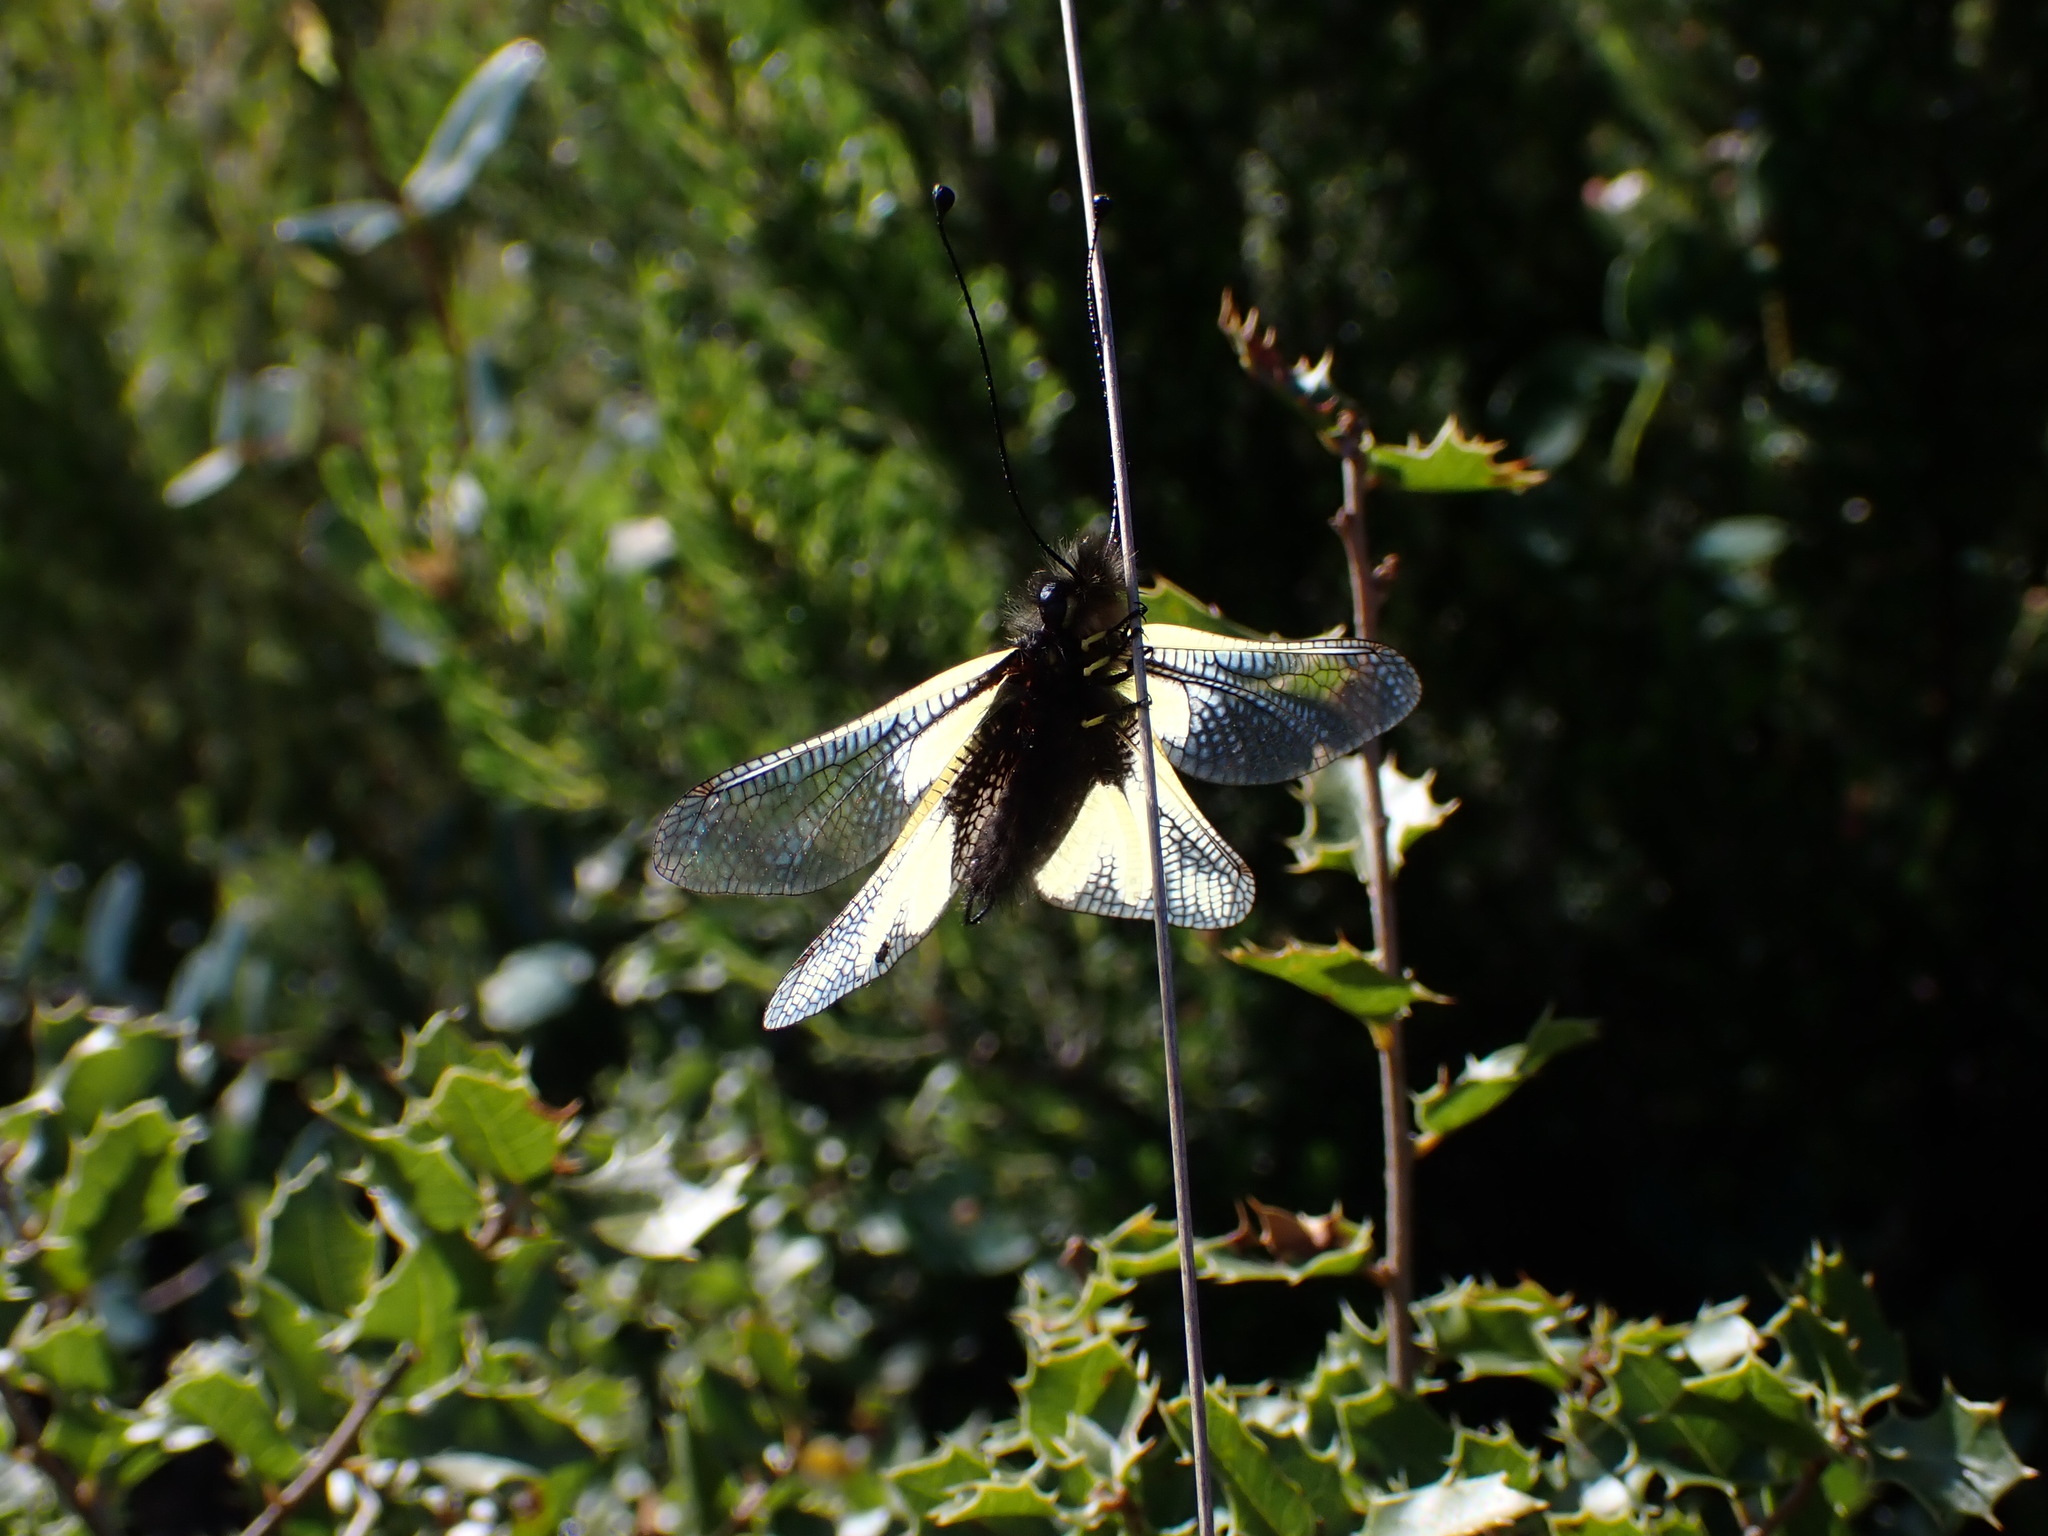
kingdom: Animalia
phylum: Arthropoda
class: Insecta
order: Neuroptera
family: Ascalaphidae
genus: Libelloides
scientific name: Libelloides coccajus
